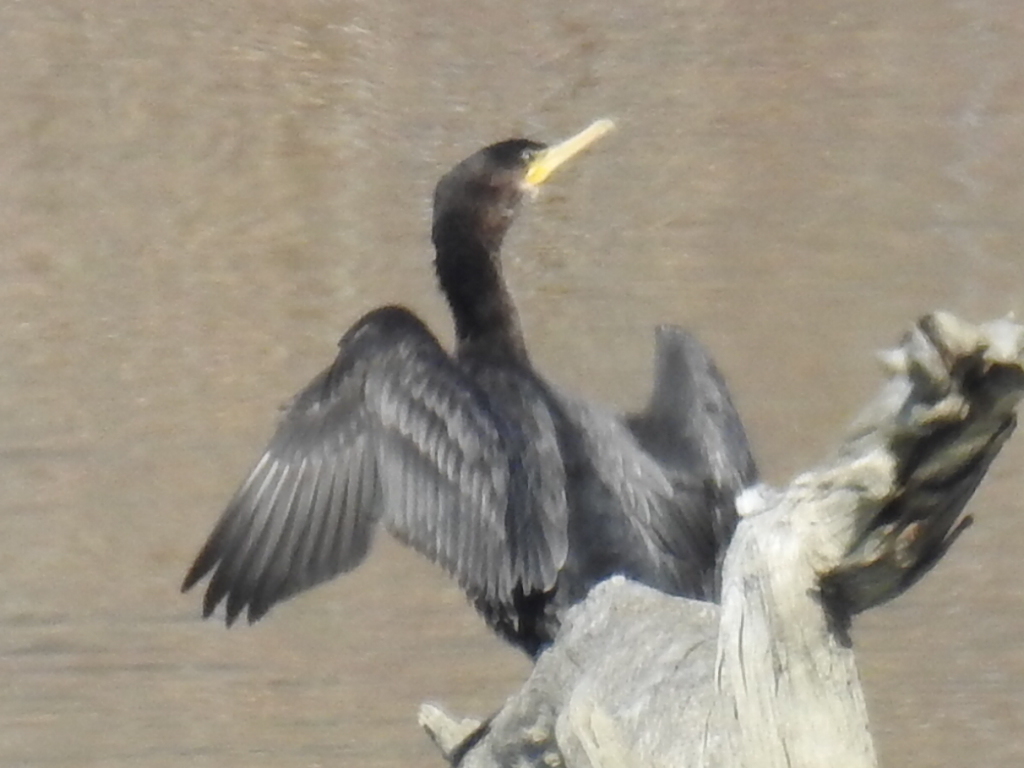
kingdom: Animalia
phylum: Chordata
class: Aves
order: Suliformes
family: Phalacrocoracidae
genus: Phalacrocorax
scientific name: Phalacrocorax auritus
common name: Double-crested cormorant
